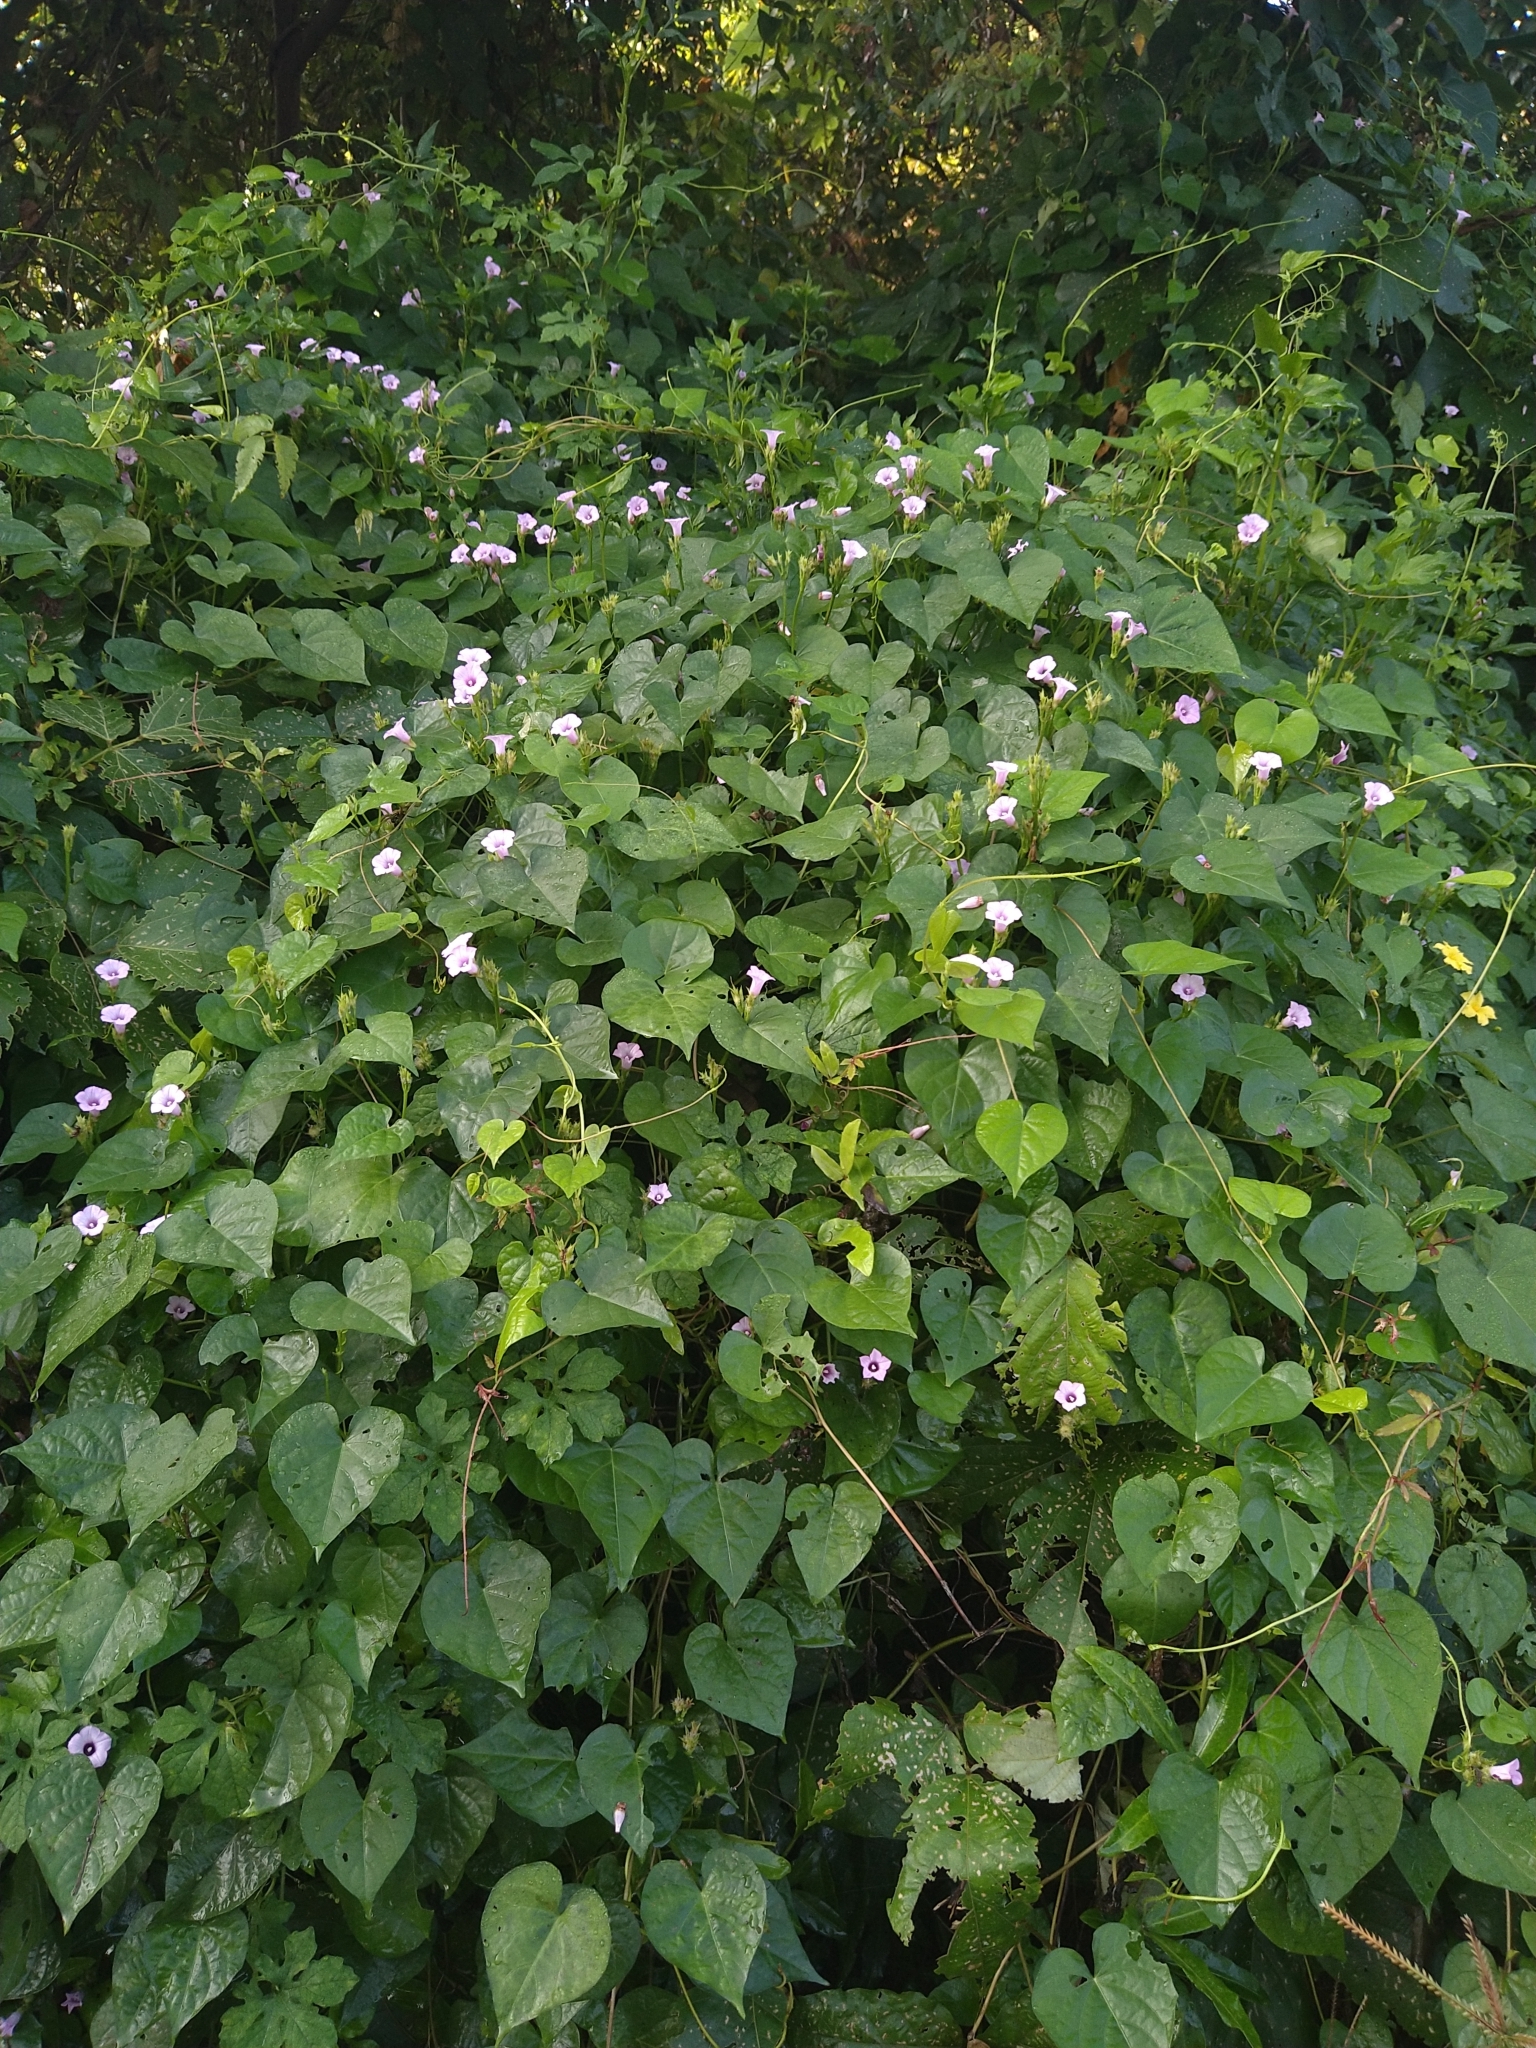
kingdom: Plantae
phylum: Tracheophyta
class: Magnoliopsida
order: Solanales
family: Convolvulaceae
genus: Ipomoea
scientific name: Ipomoea triloba
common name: Little-bell
